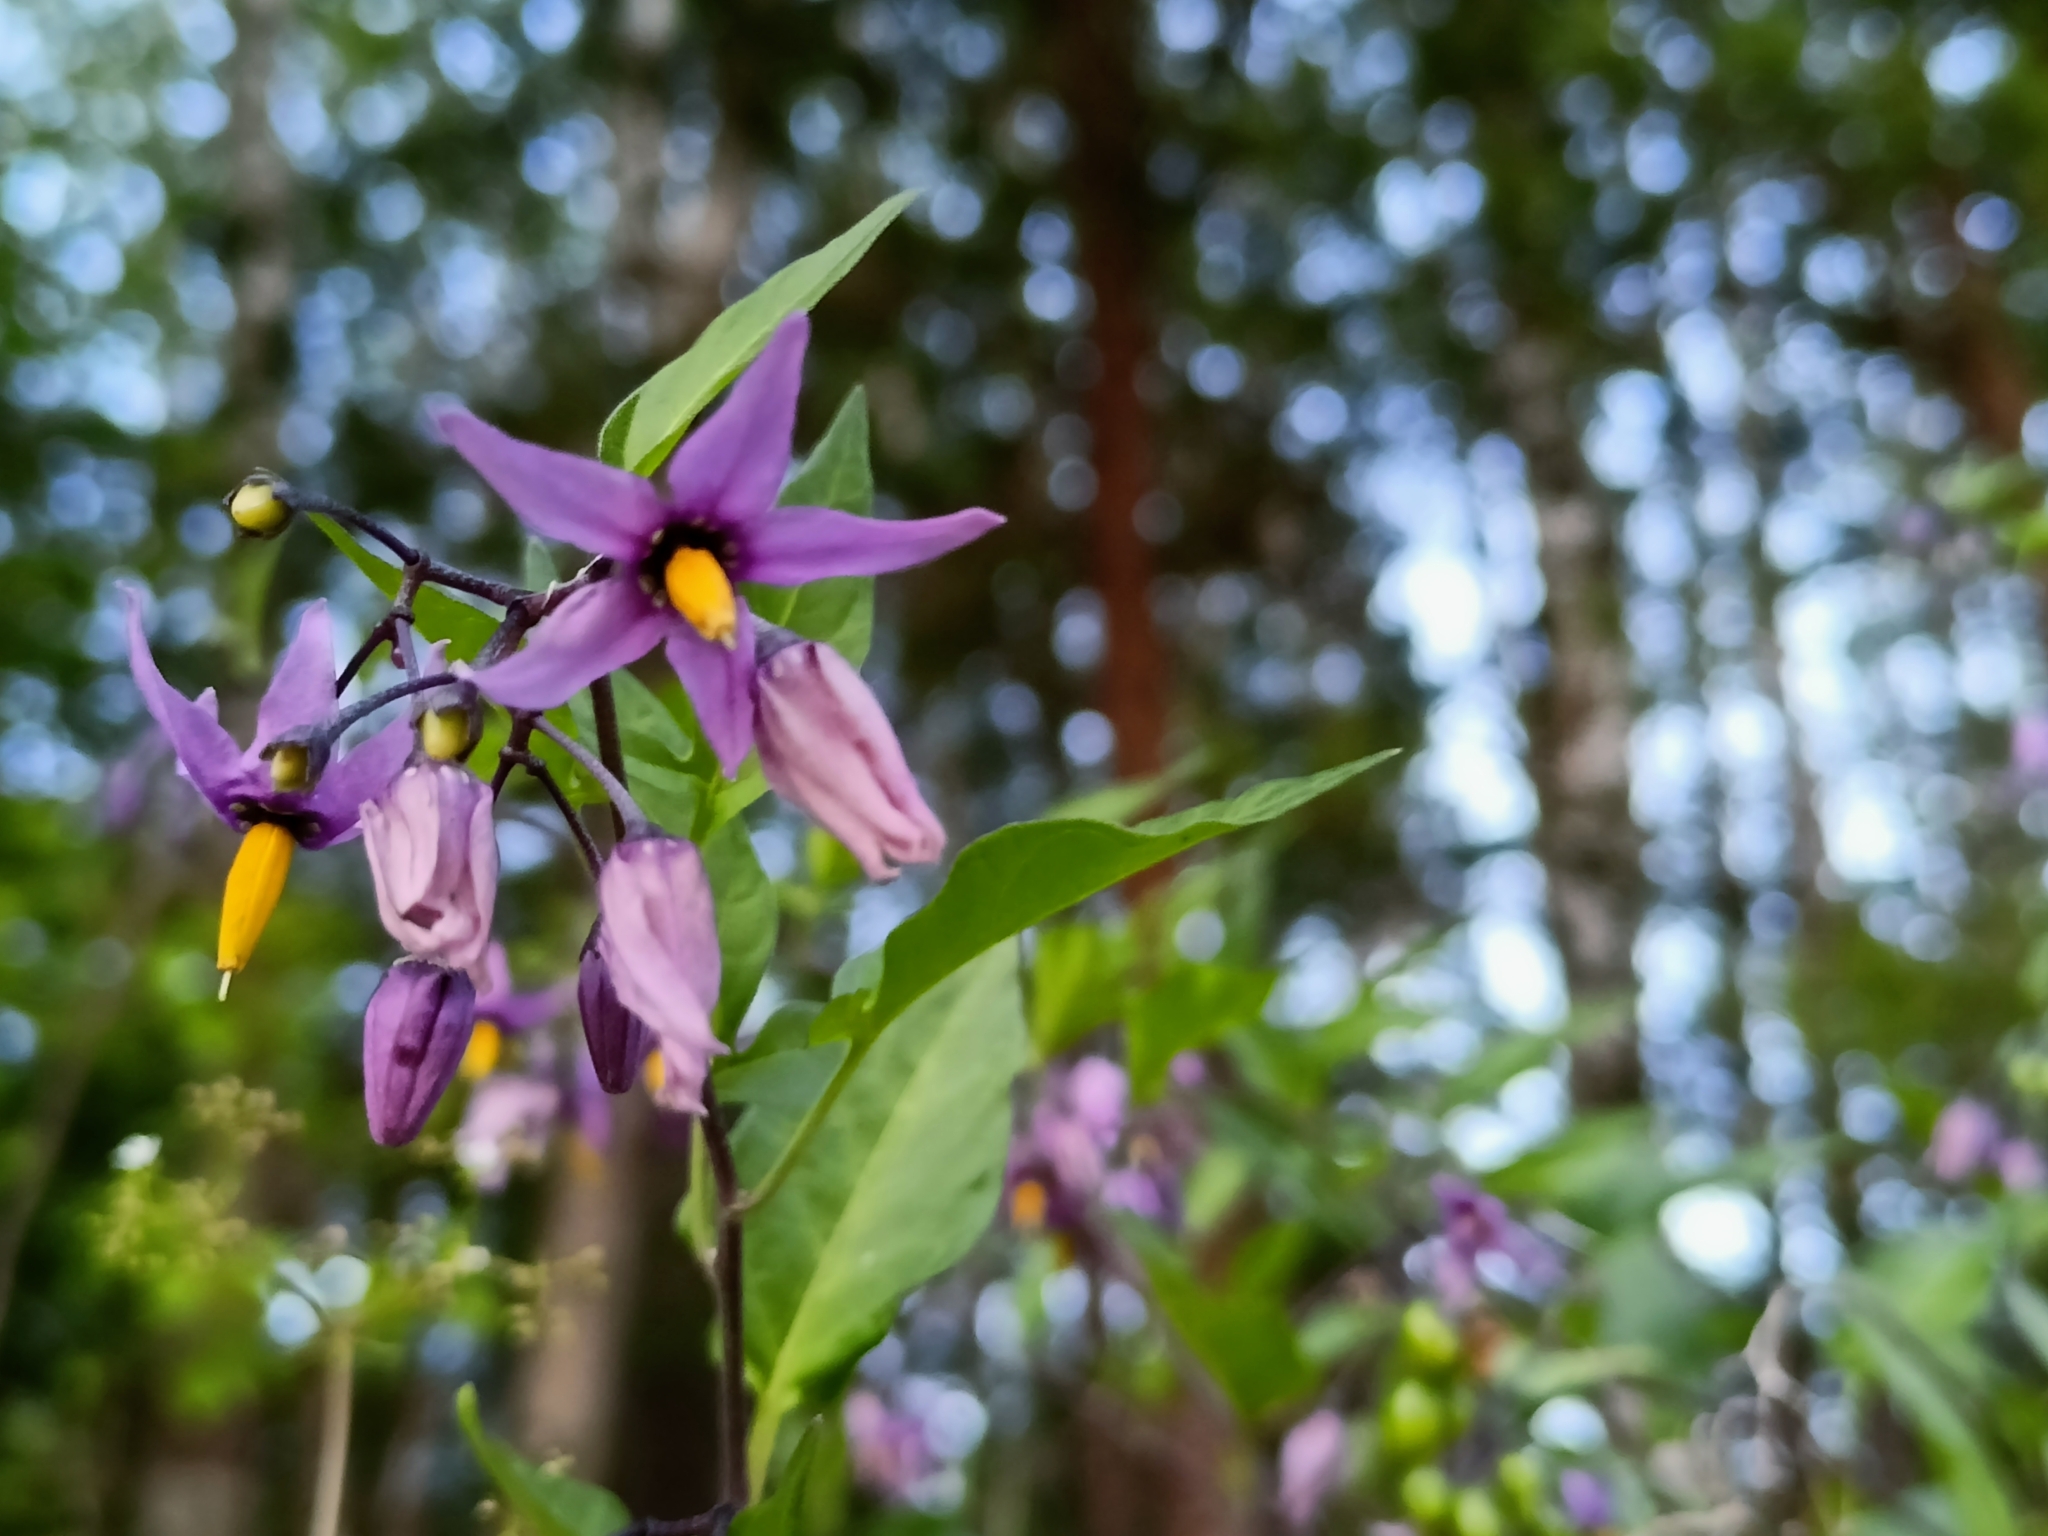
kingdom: Plantae
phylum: Tracheophyta
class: Magnoliopsida
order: Solanales
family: Solanaceae
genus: Solanum
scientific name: Solanum dulcamara
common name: Climbing nightshade
